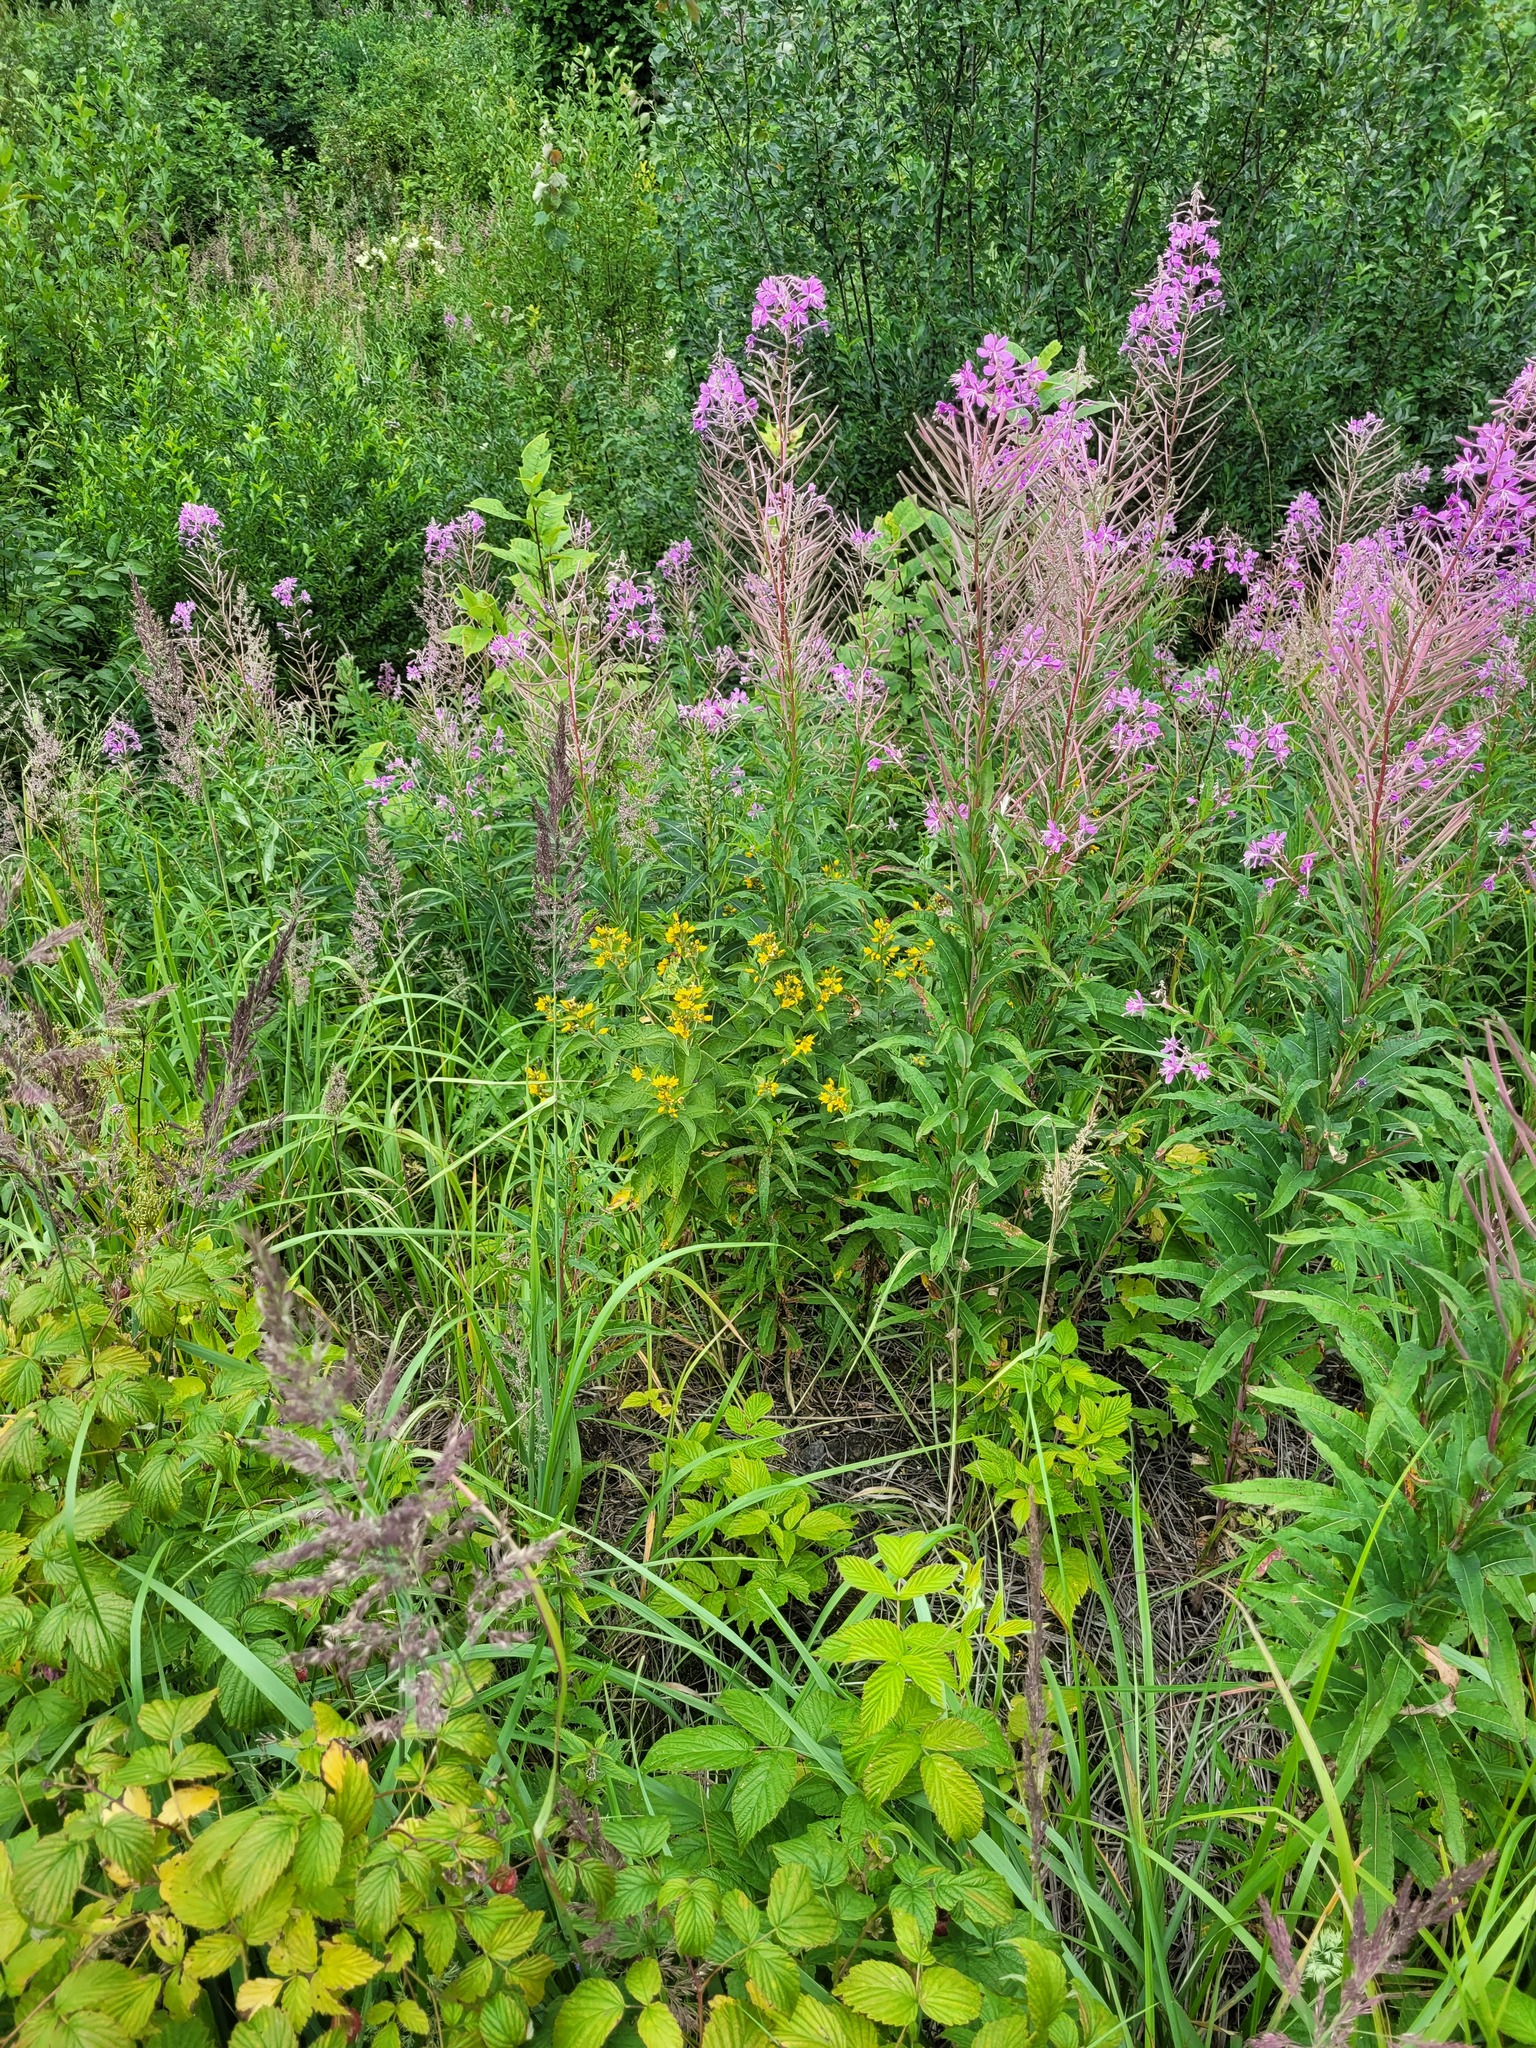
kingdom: Plantae
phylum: Tracheophyta
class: Magnoliopsida
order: Ericales
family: Primulaceae
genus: Lysimachia
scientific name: Lysimachia vulgaris
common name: Yellow loosestrife
